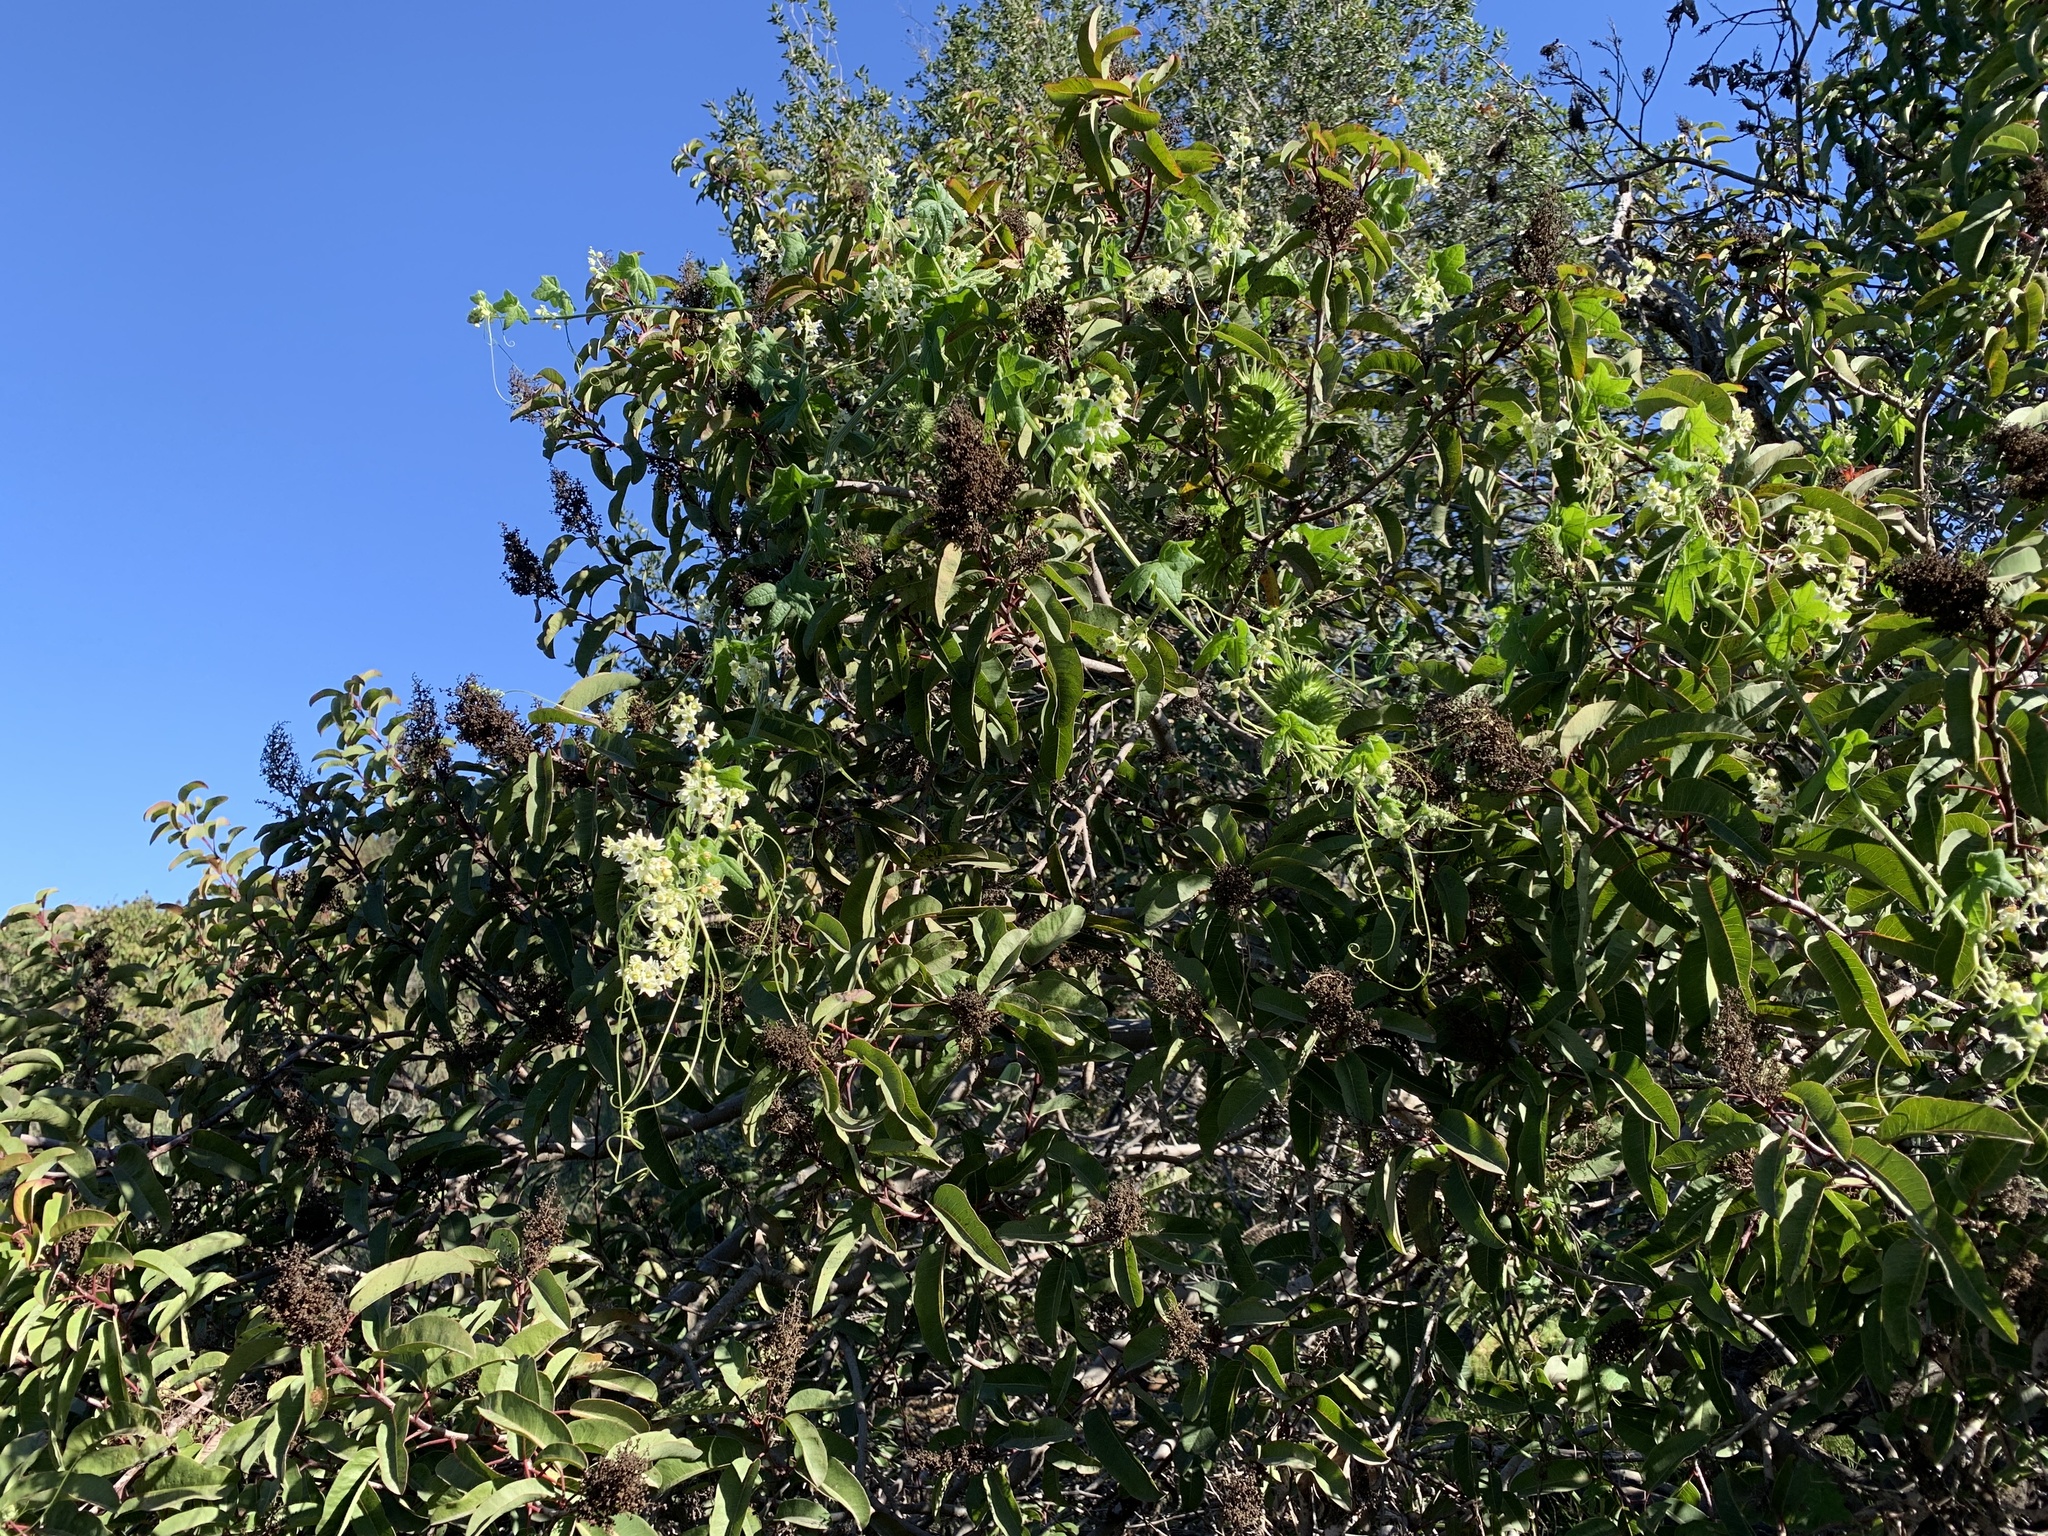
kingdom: Plantae
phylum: Tracheophyta
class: Magnoliopsida
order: Cucurbitales
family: Cucurbitaceae
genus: Marah
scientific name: Marah macrocarpa
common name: Cucamonga manroot
